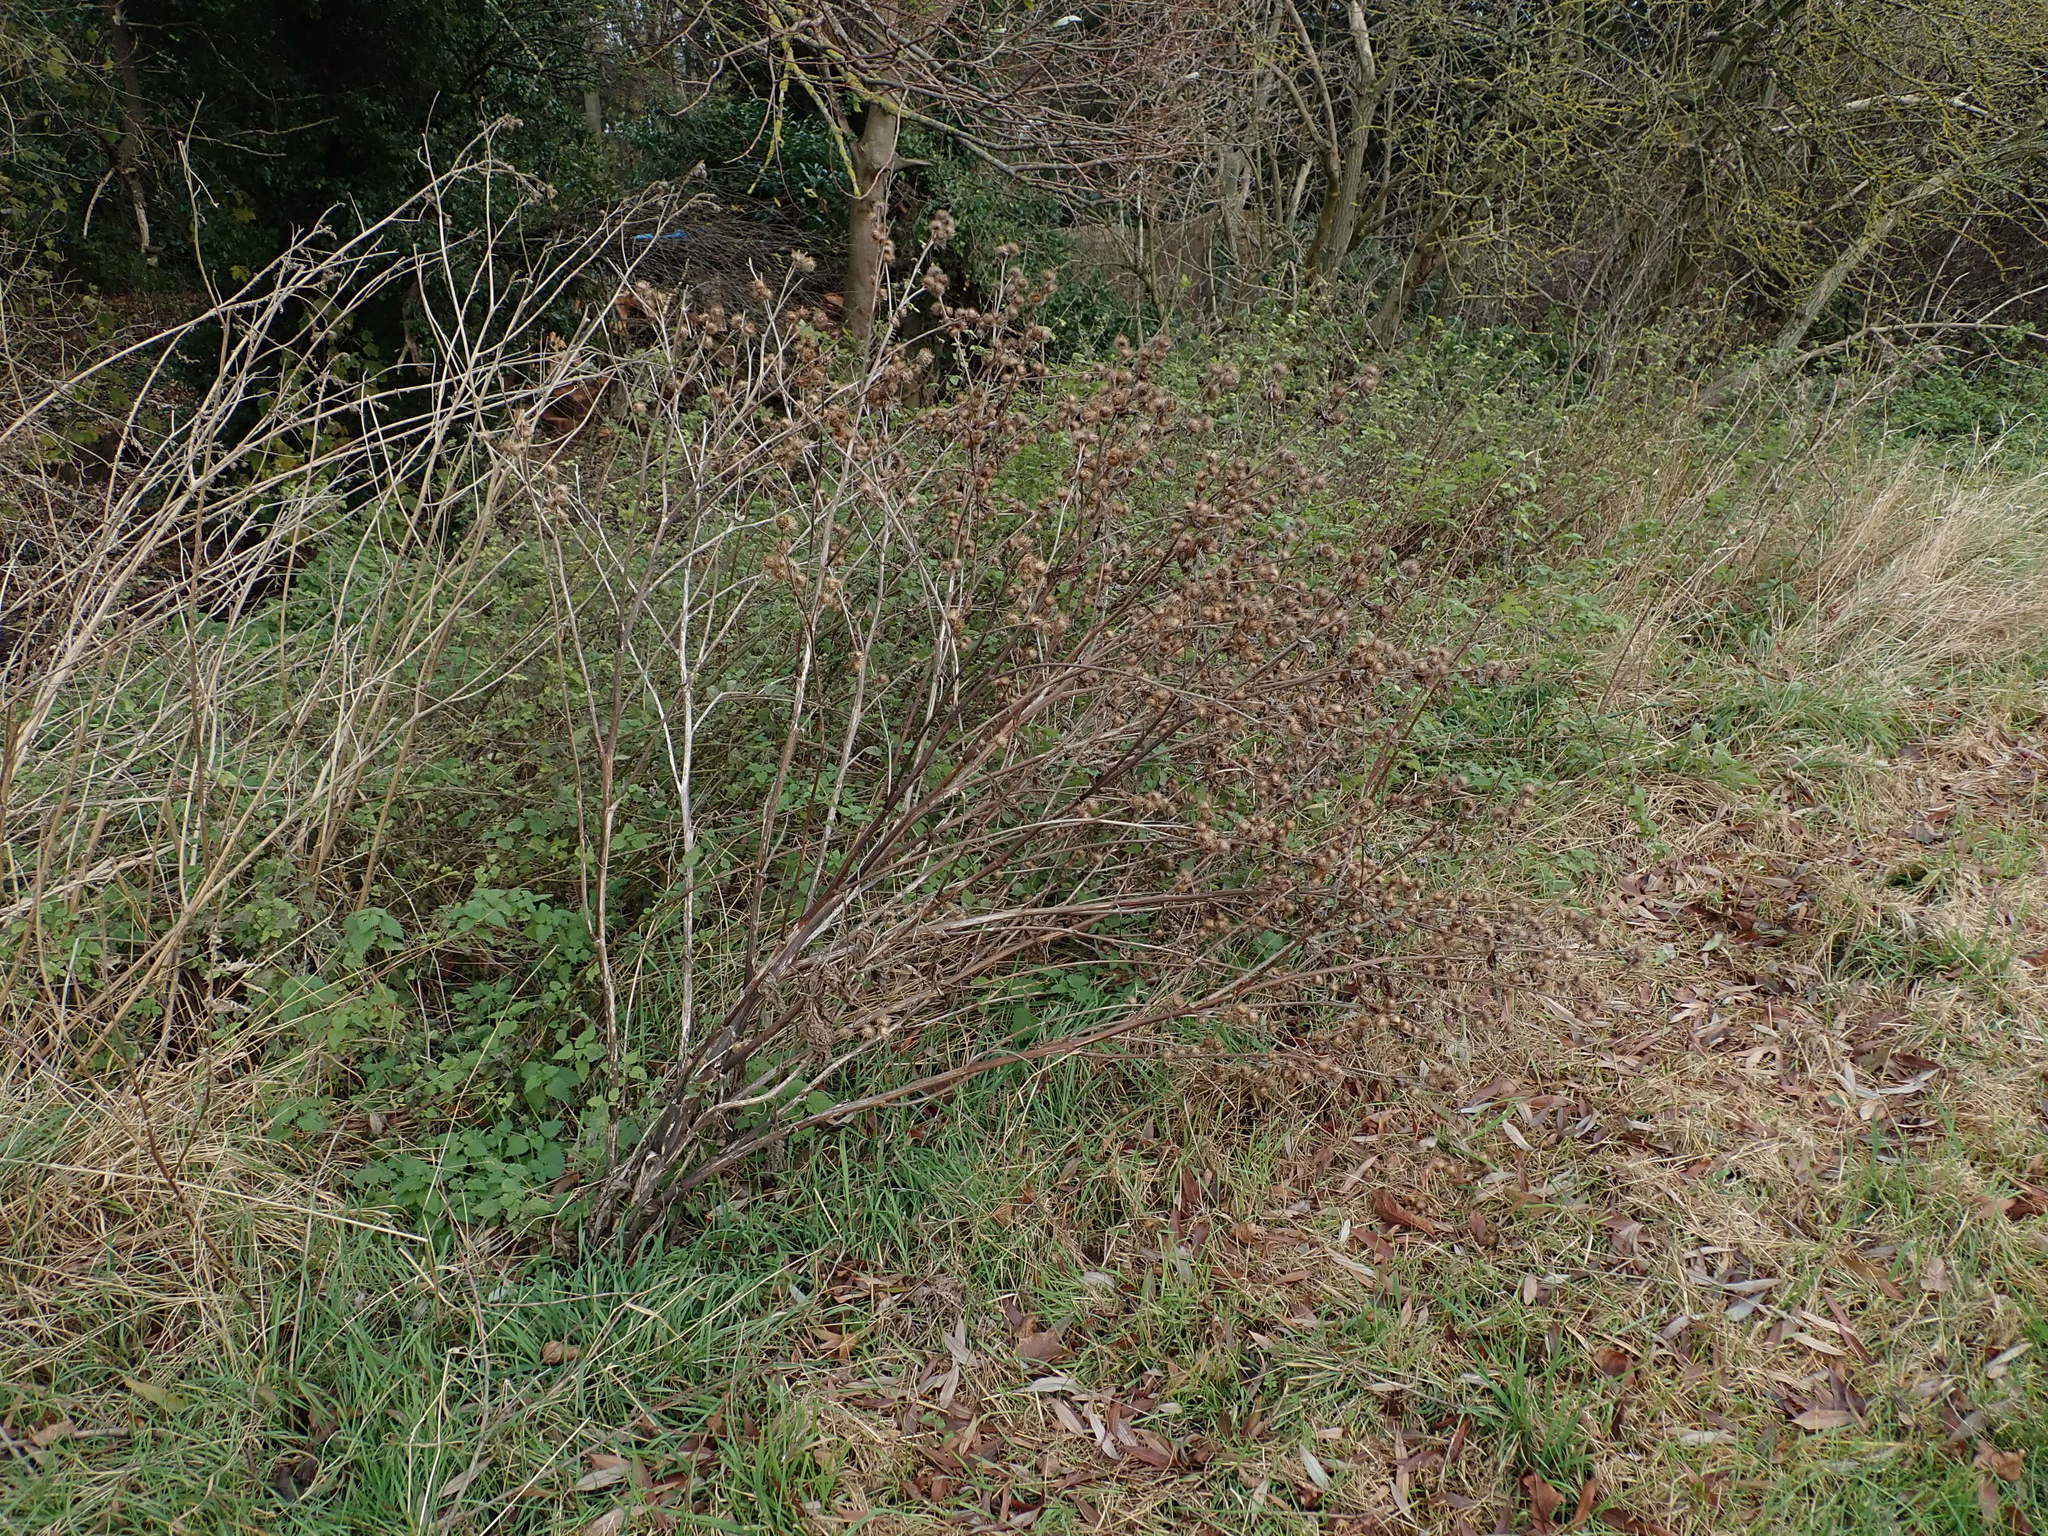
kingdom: Plantae
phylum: Tracheophyta
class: Magnoliopsida
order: Asterales
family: Asteraceae
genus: Arctium
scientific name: Arctium minus
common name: Lesser burdock
